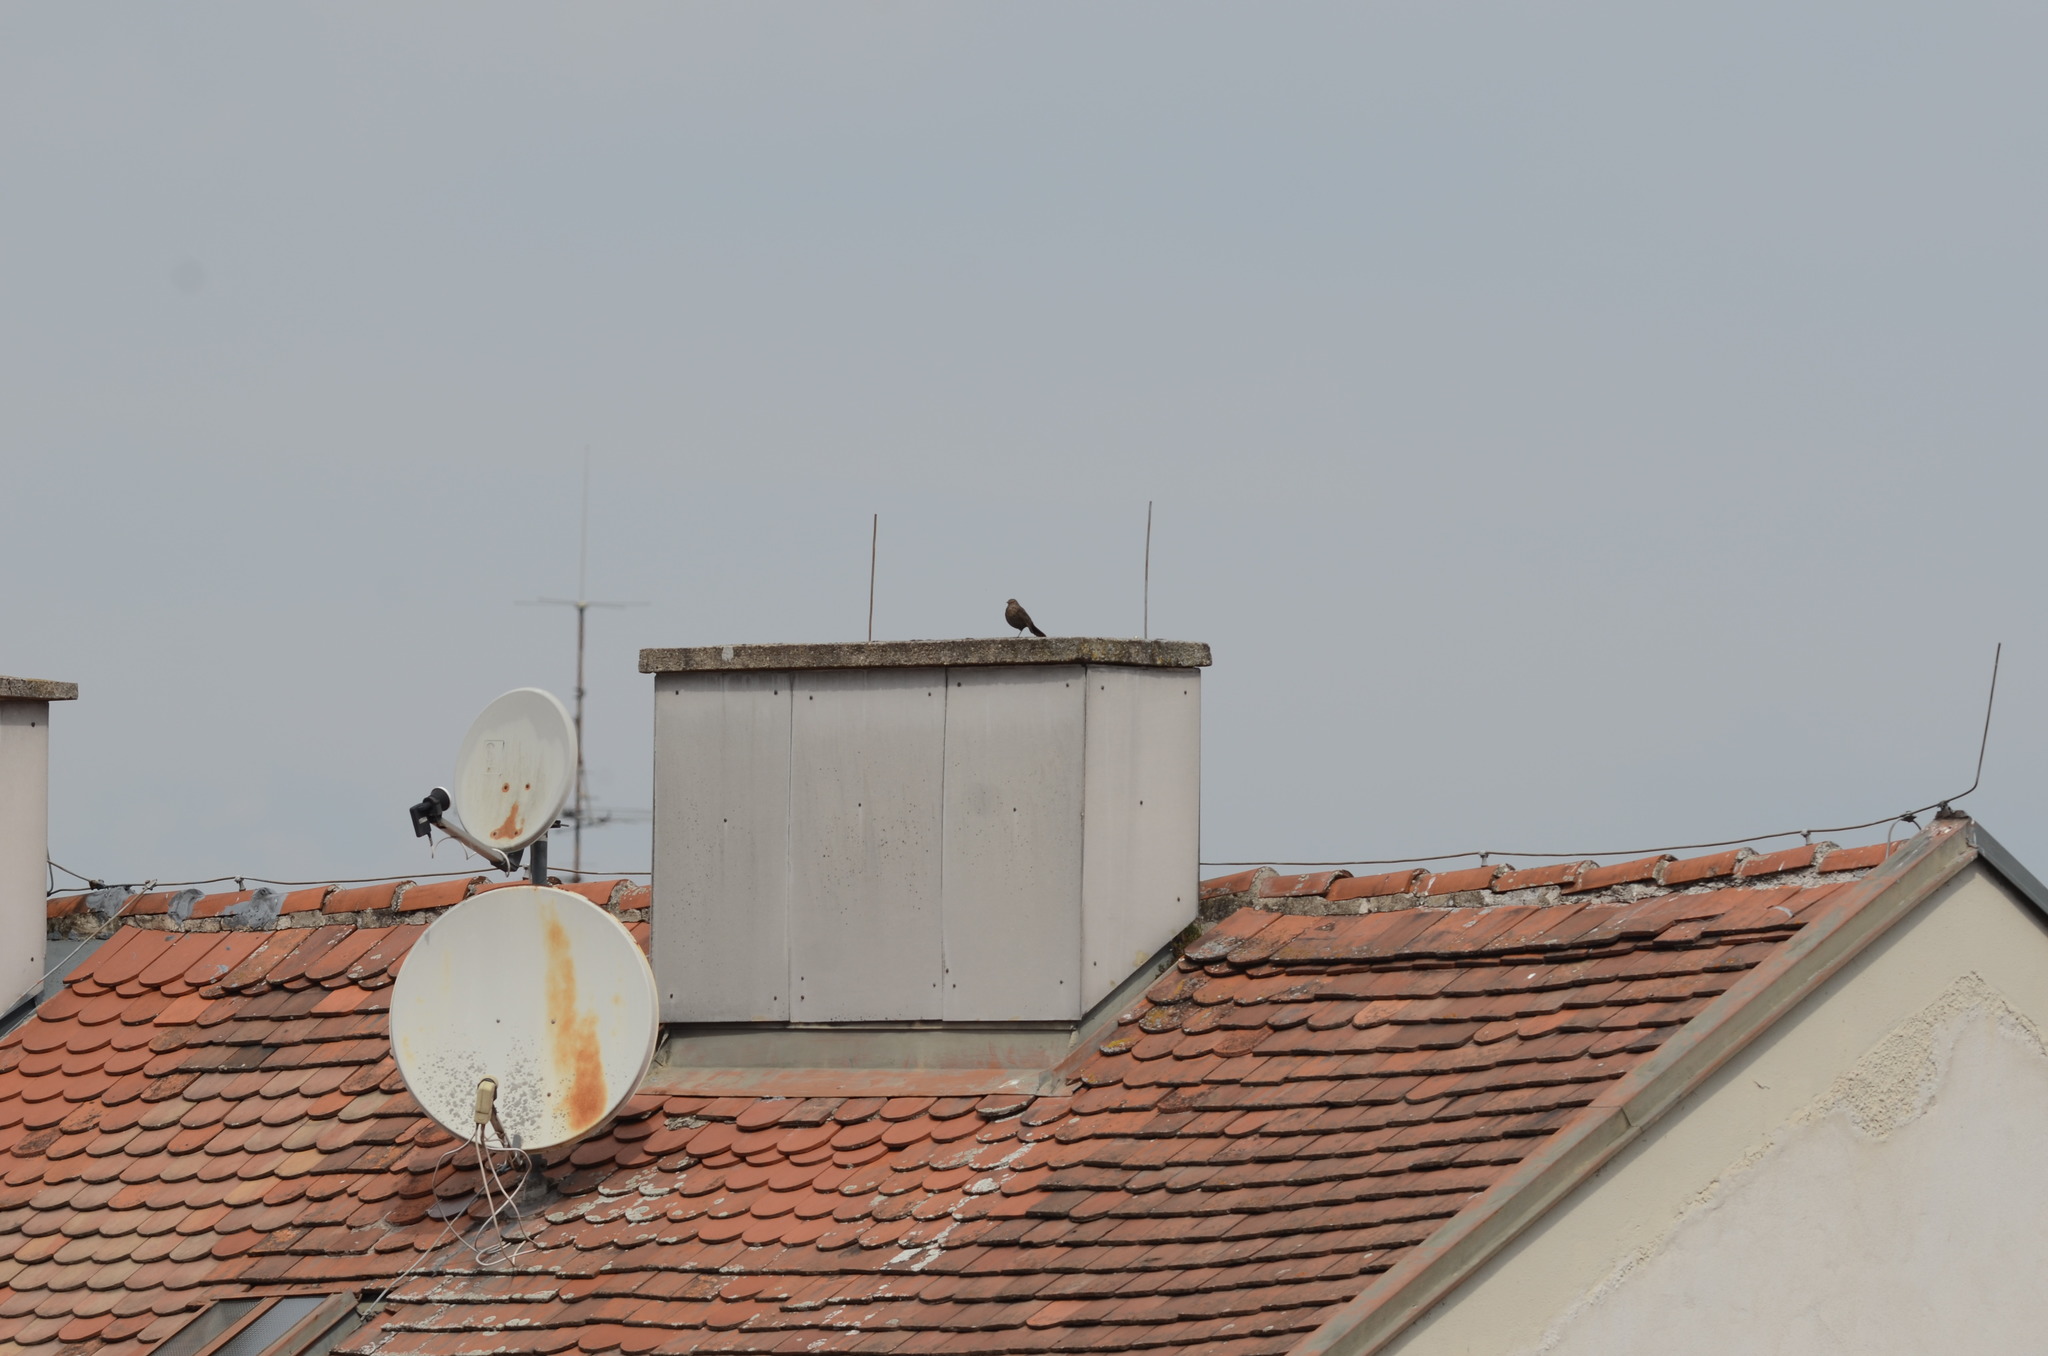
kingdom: Animalia
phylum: Chordata
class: Aves
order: Passeriformes
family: Turdidae
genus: Turdus
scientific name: Turdus merula
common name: Common blackbird
